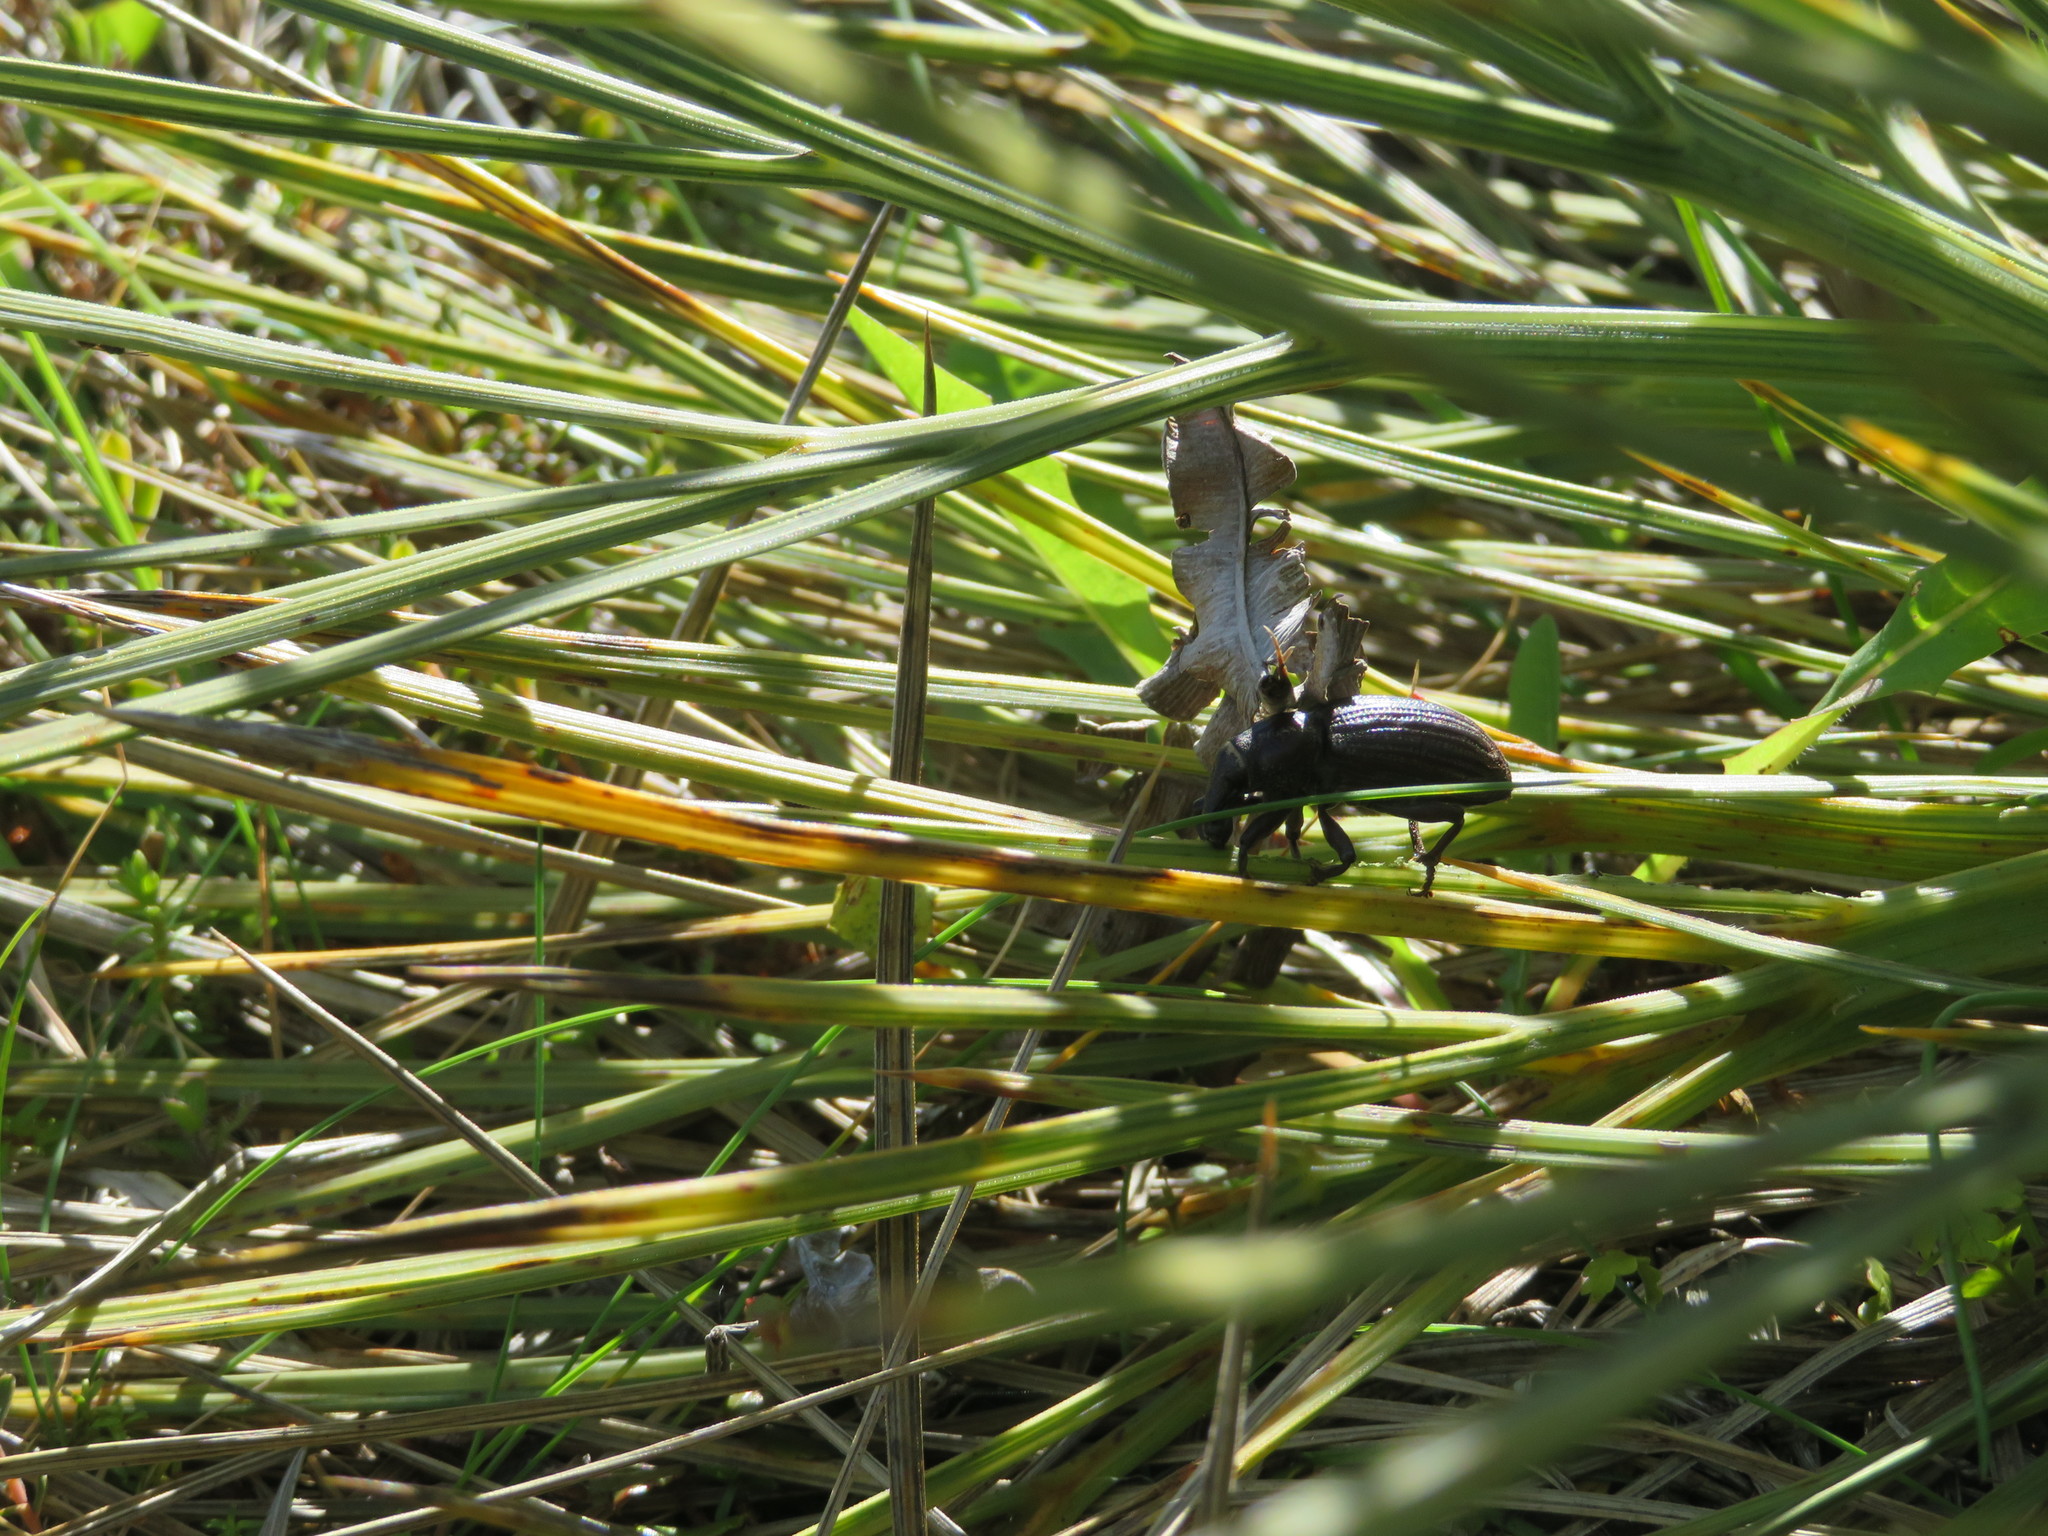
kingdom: Animalia
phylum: Arthropoda
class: Insecta
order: Coleoptera
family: Curculionidae
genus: Lyperobius
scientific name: Lyperobius huttoni
